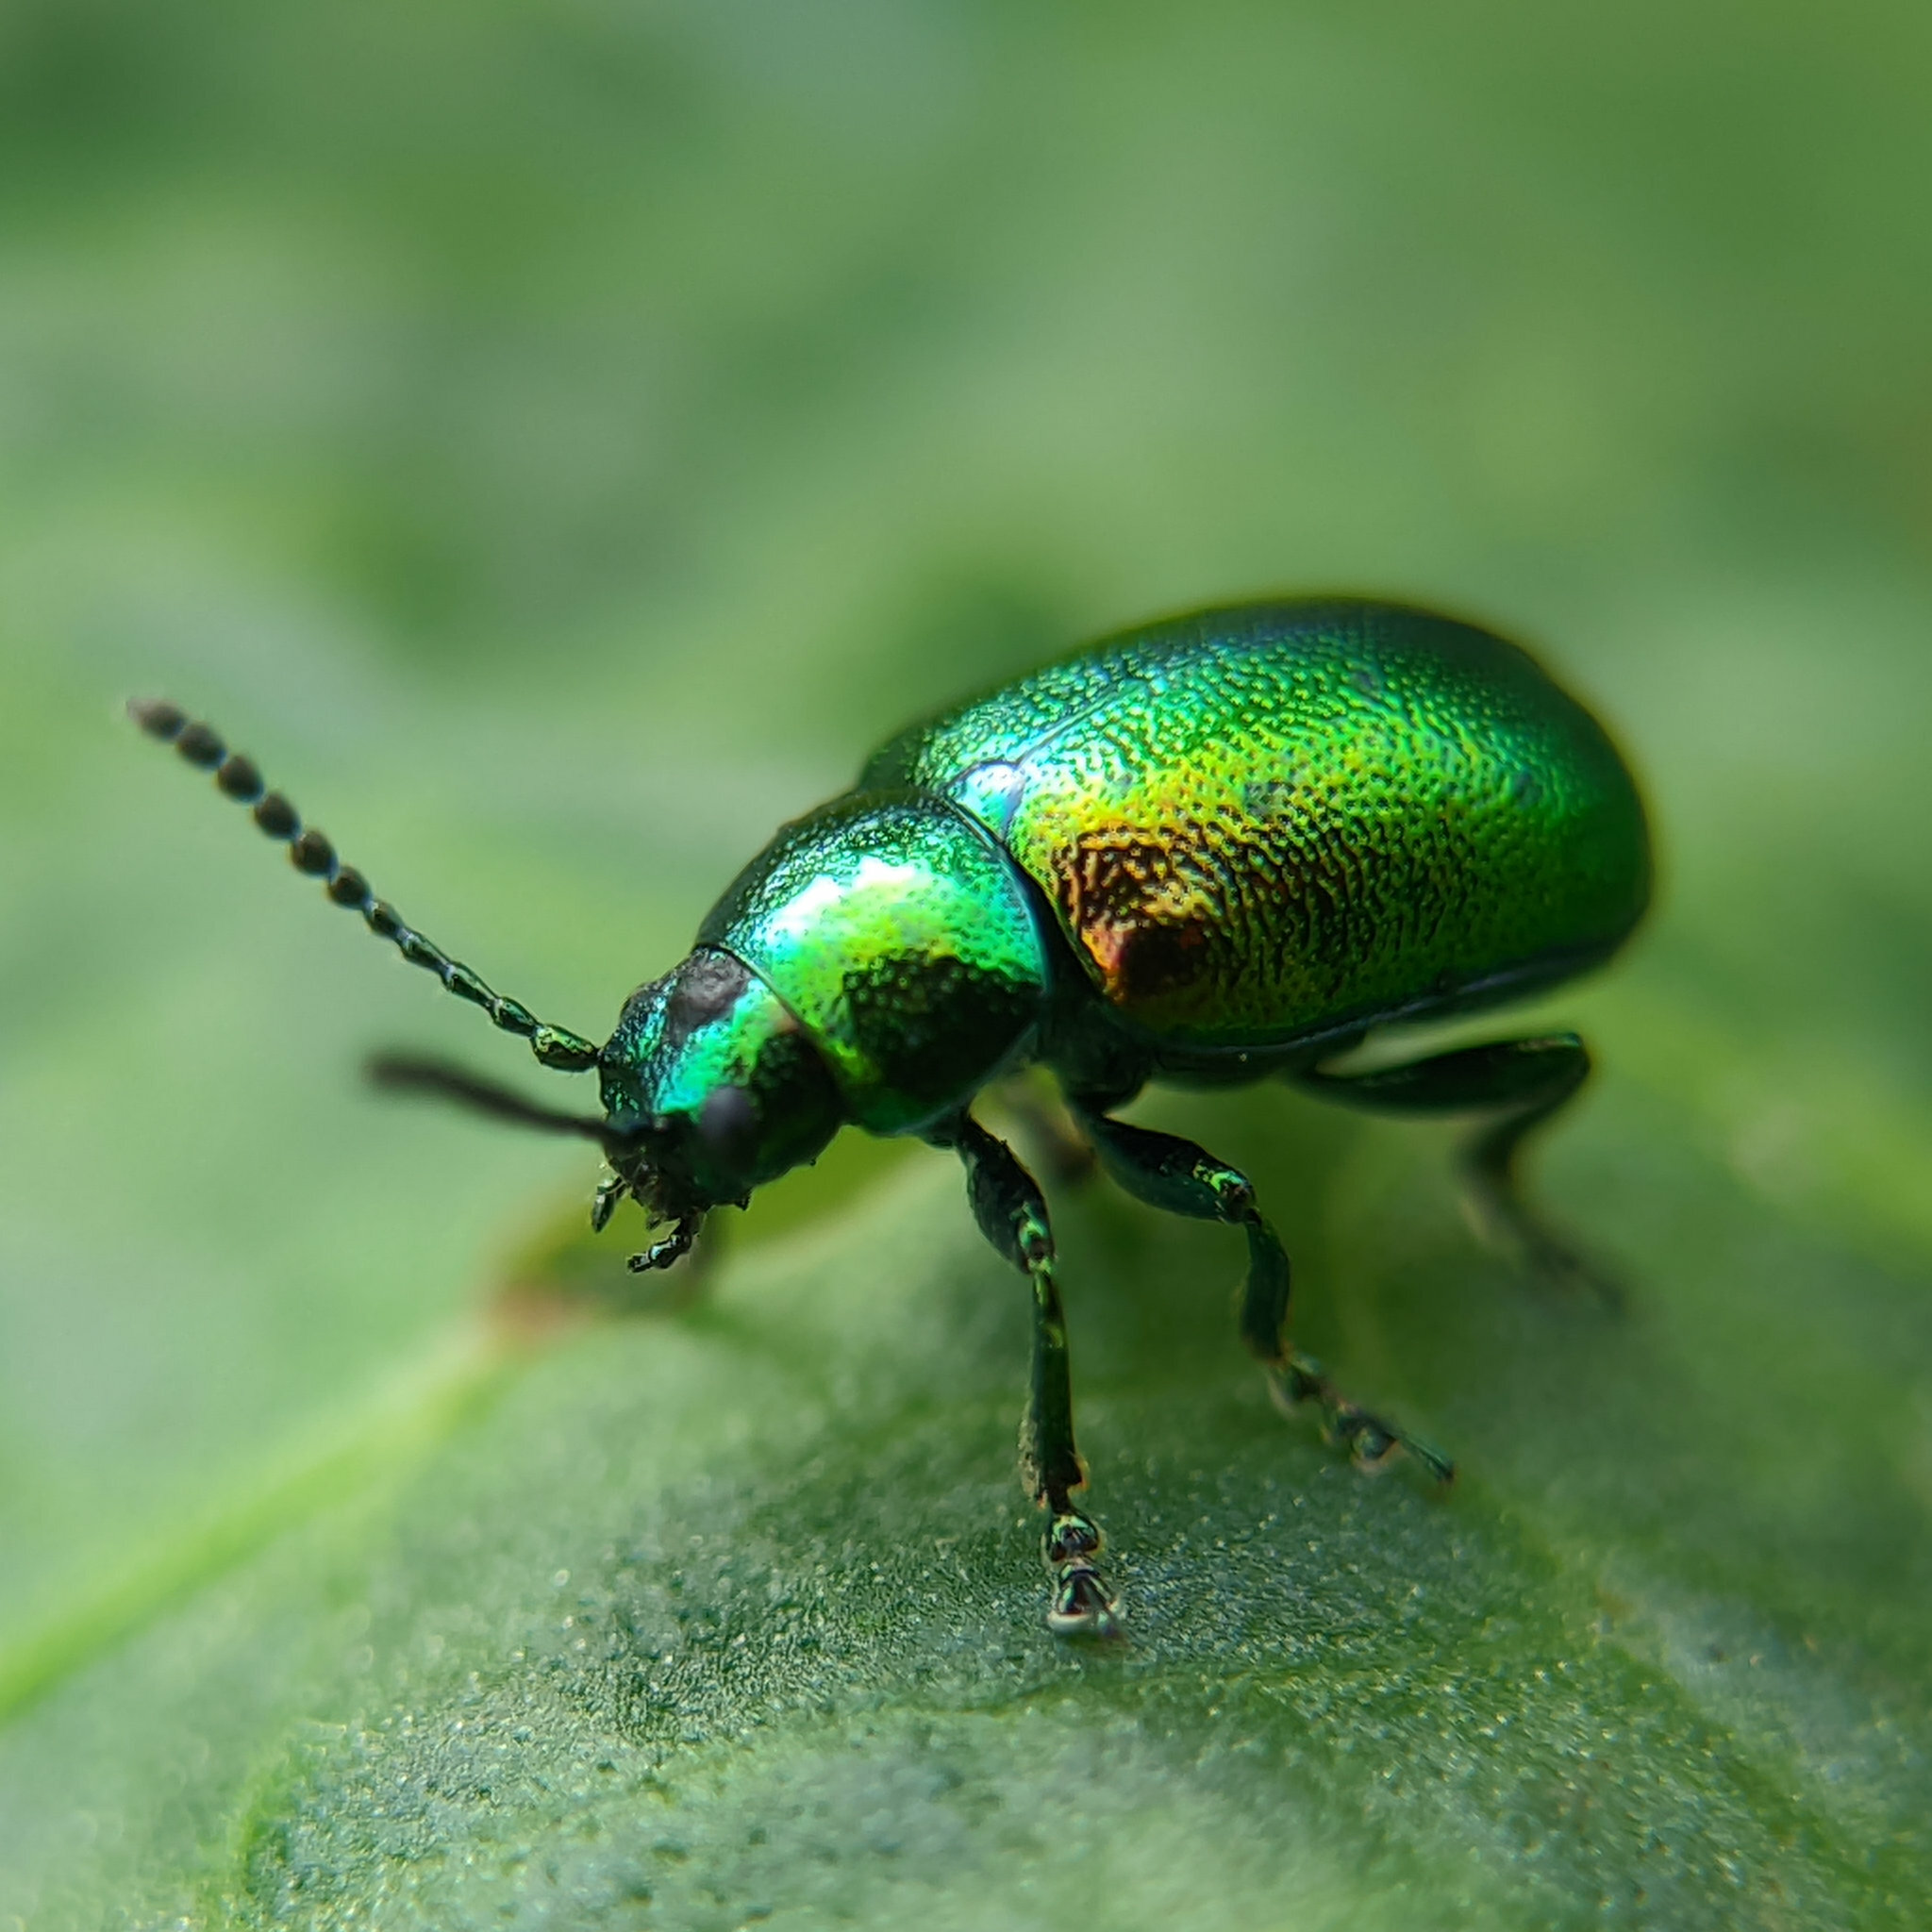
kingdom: Animalia
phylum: Arthropoda
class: Insecta
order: Coleoptera
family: Chrysomelidae
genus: Gastrophysa
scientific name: Gastrophysa viridula
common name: Green dock beetle
